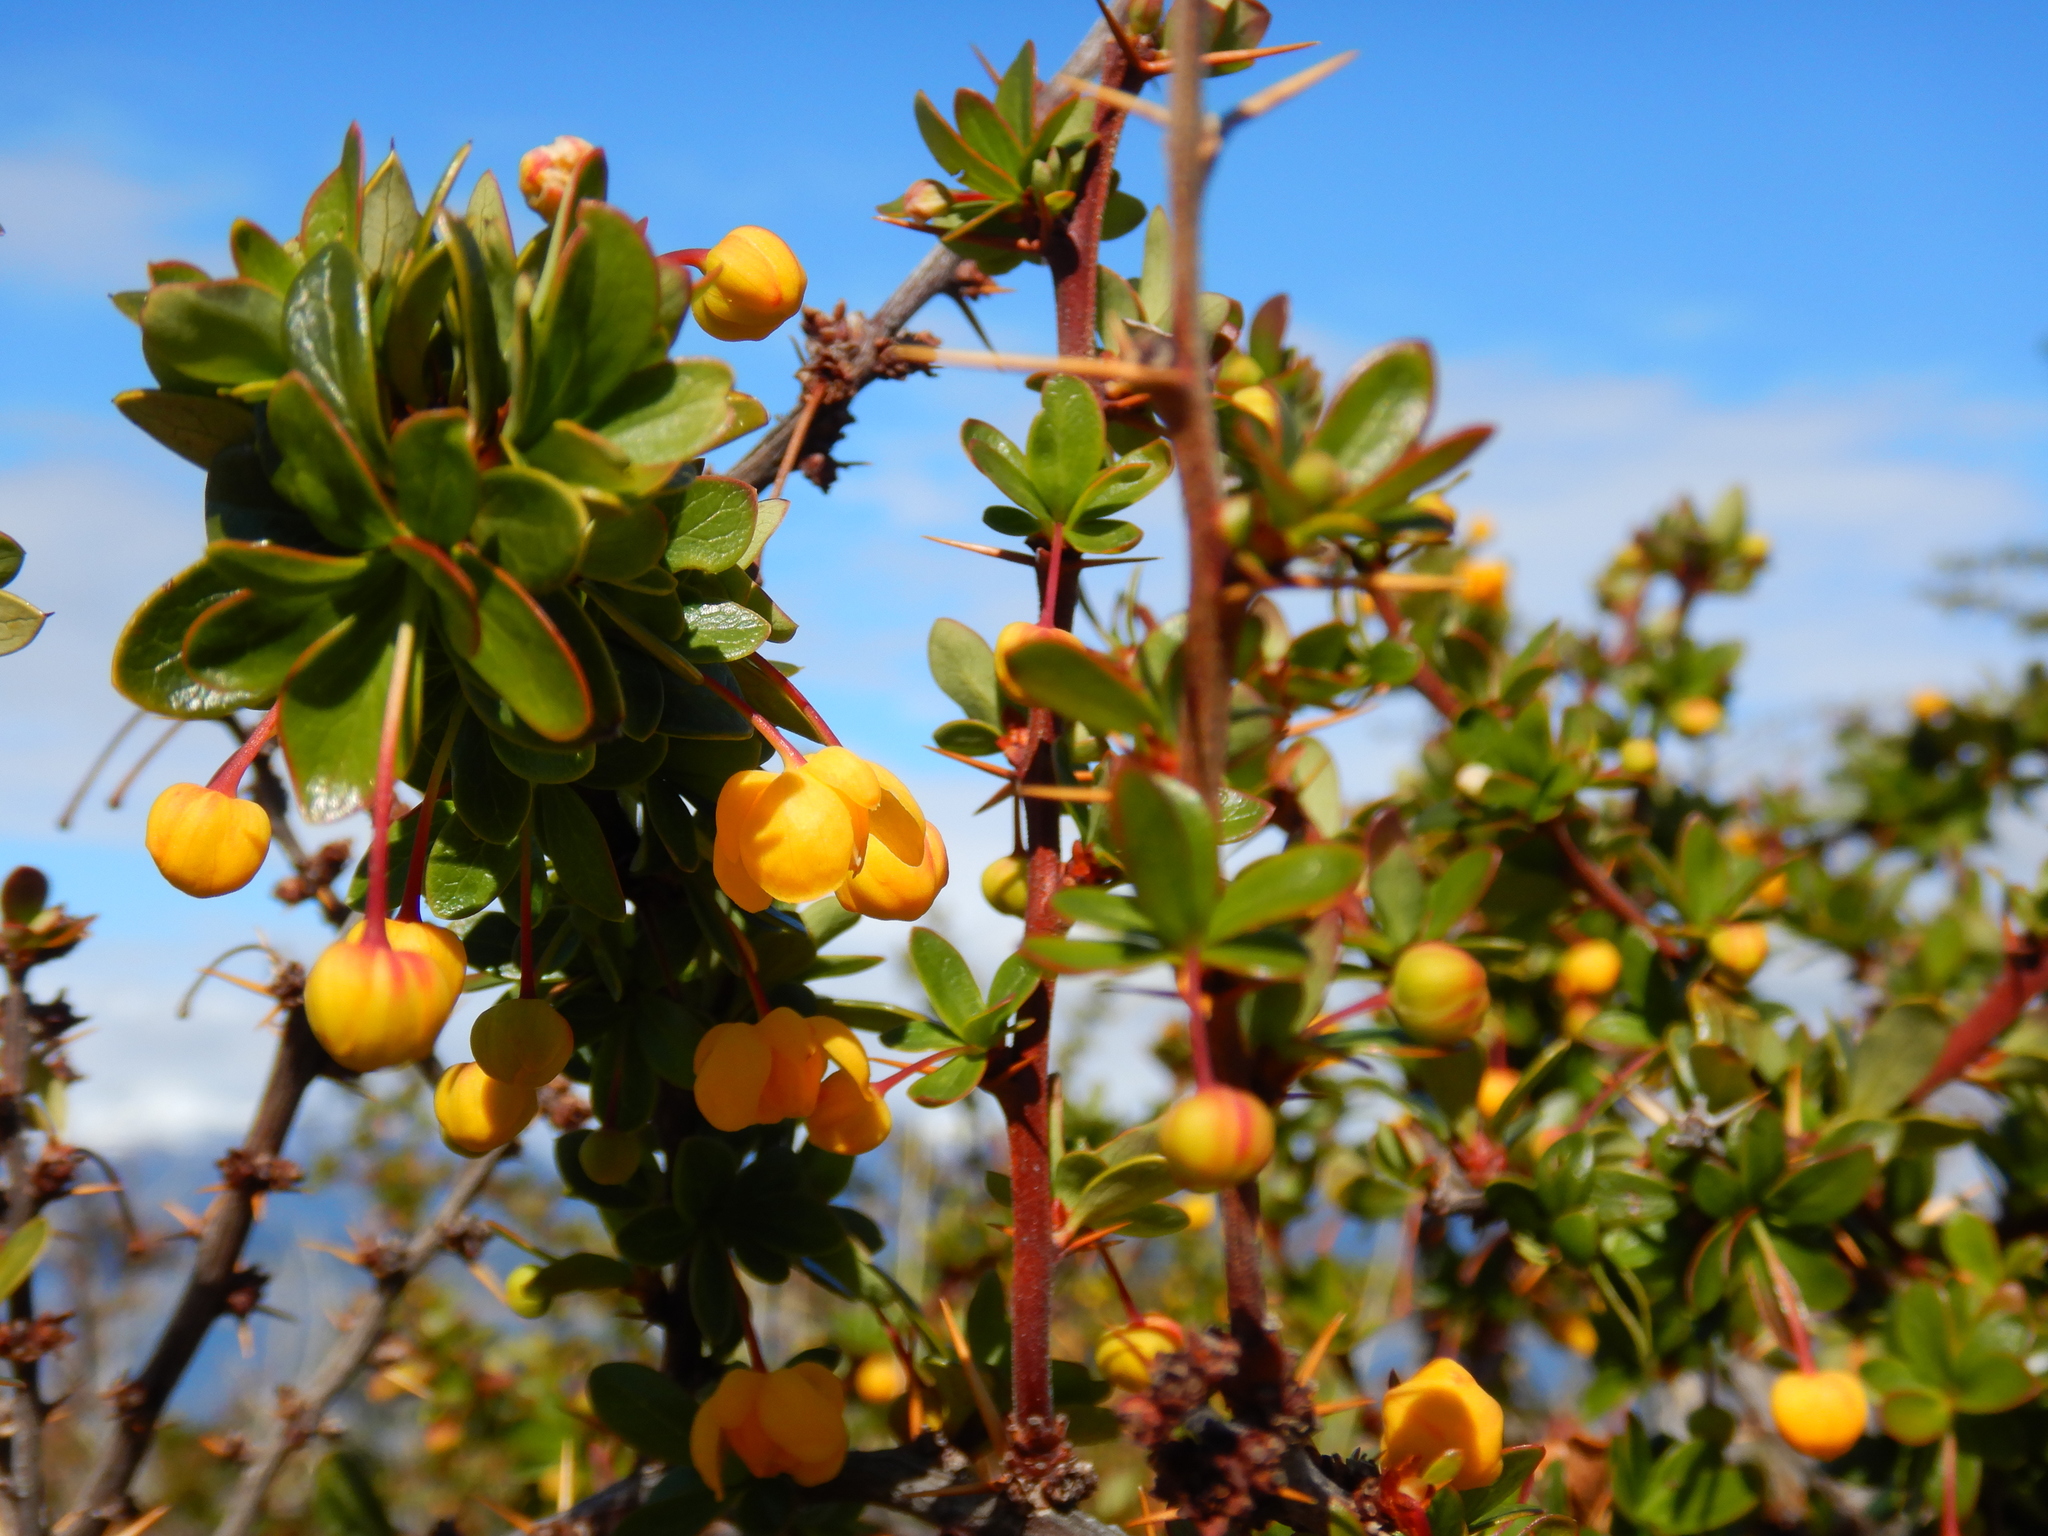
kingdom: Plantae
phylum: Tracheophyta
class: Magnoliopsida
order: Ranunculales
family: Berberidaceae
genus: Berberis
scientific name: Berberis microphylla
